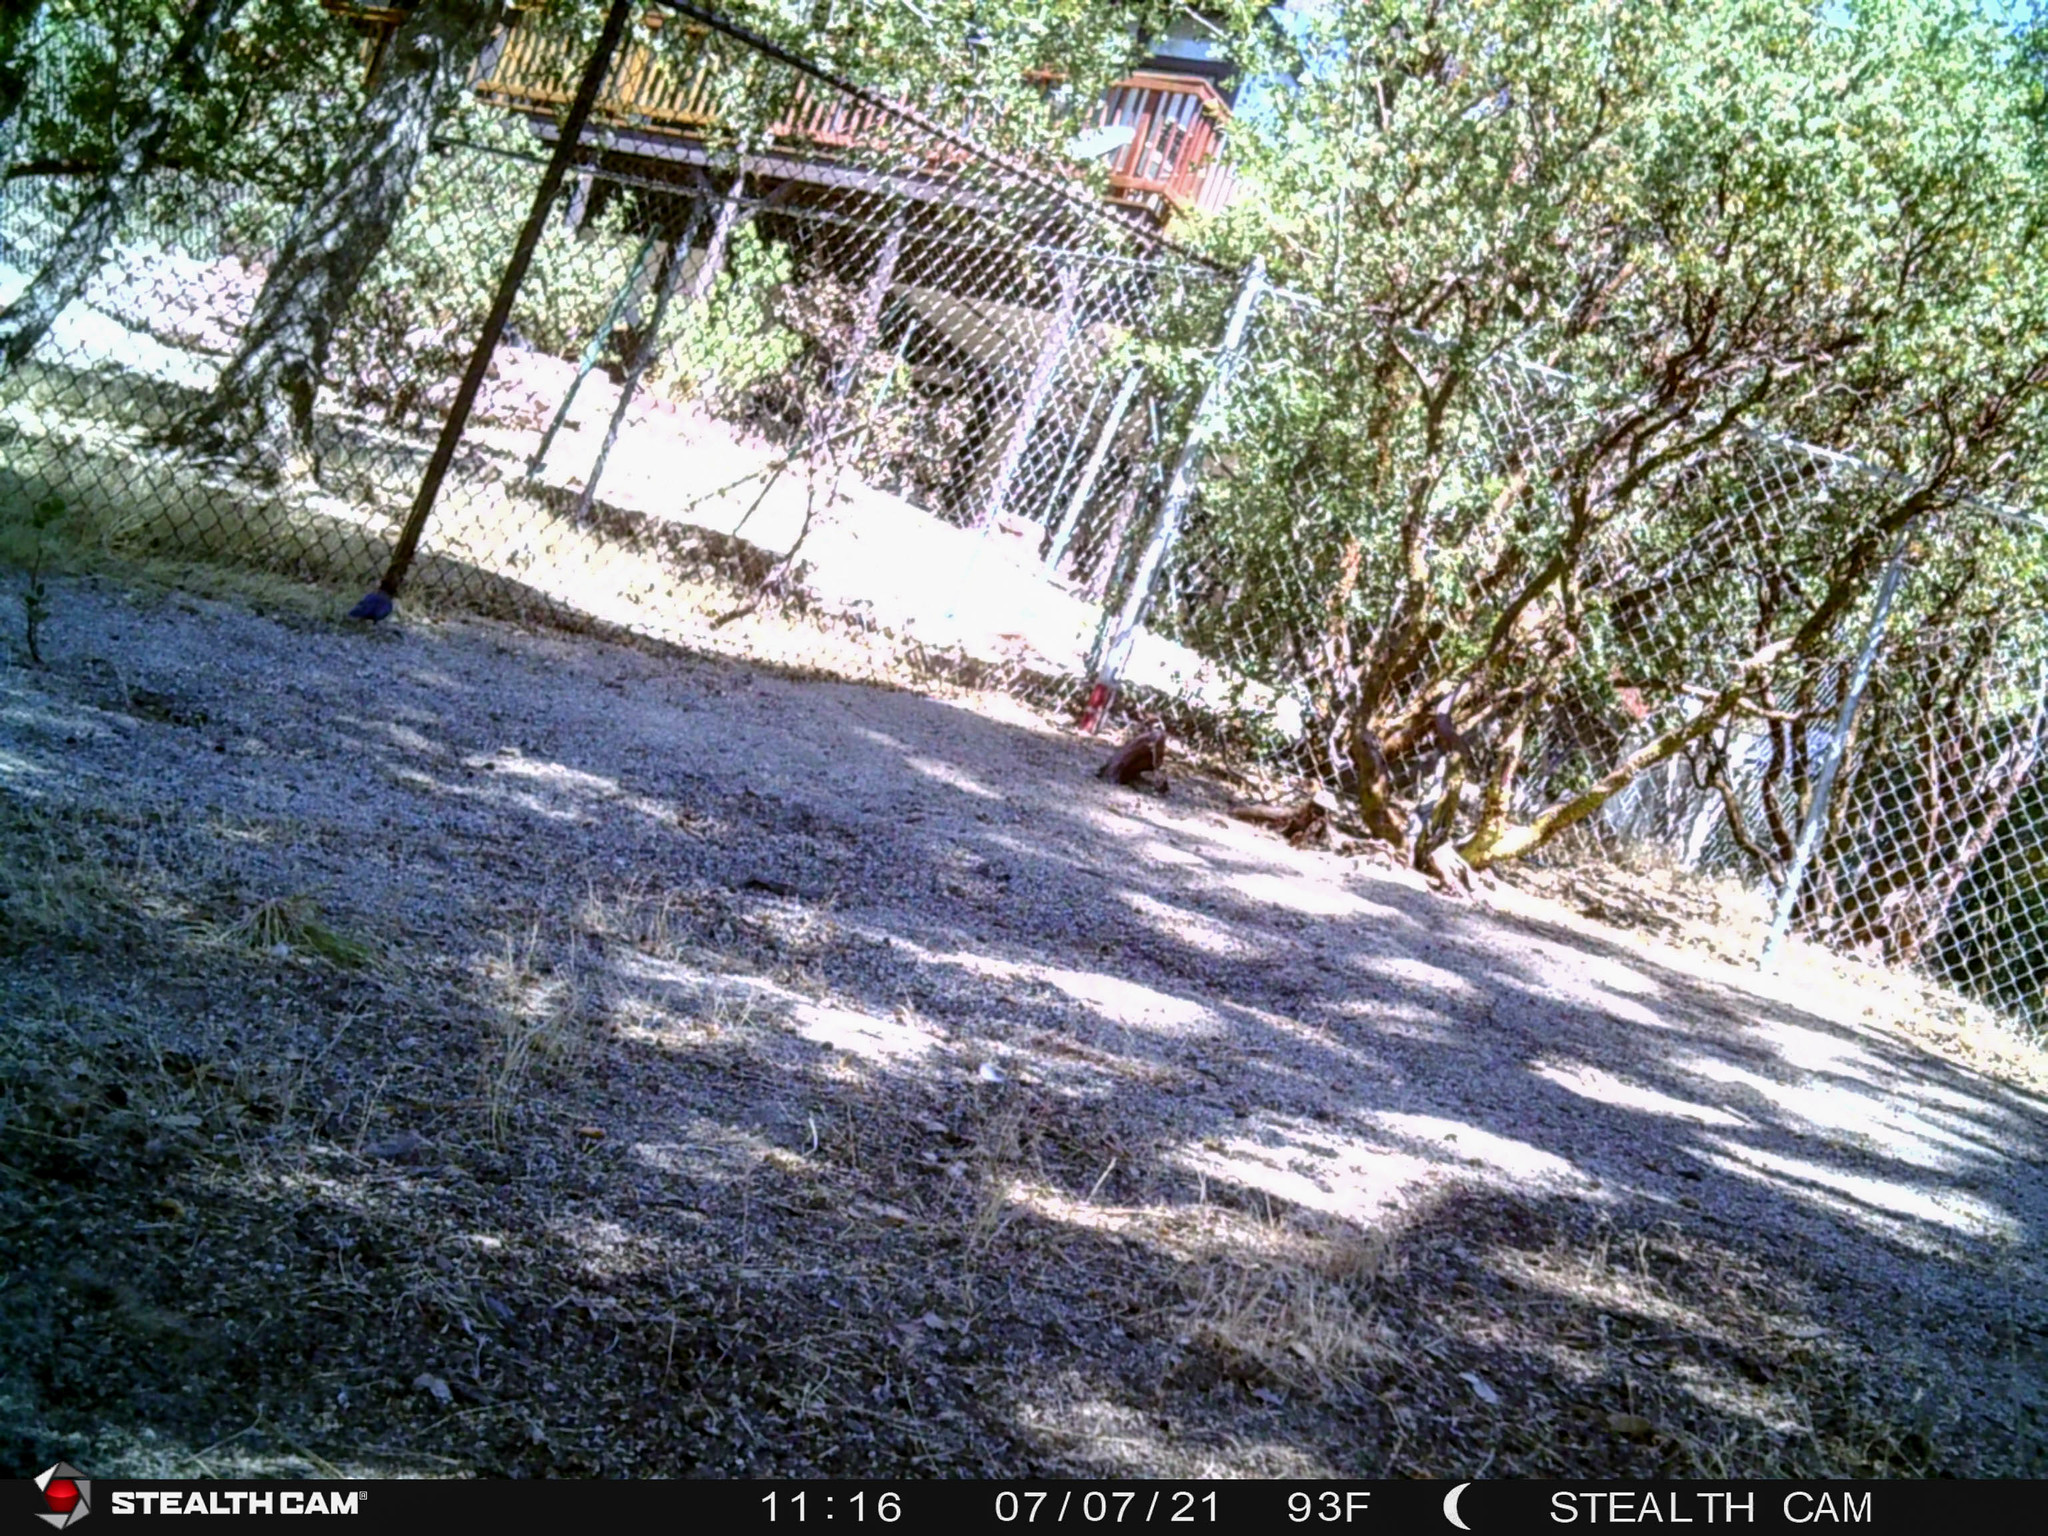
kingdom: Animalia
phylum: Chordata
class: Aves
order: Passeriformes
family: Corvidae
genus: Cyanocitta
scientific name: Cyanocitta stelleri
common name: Steller's jay
